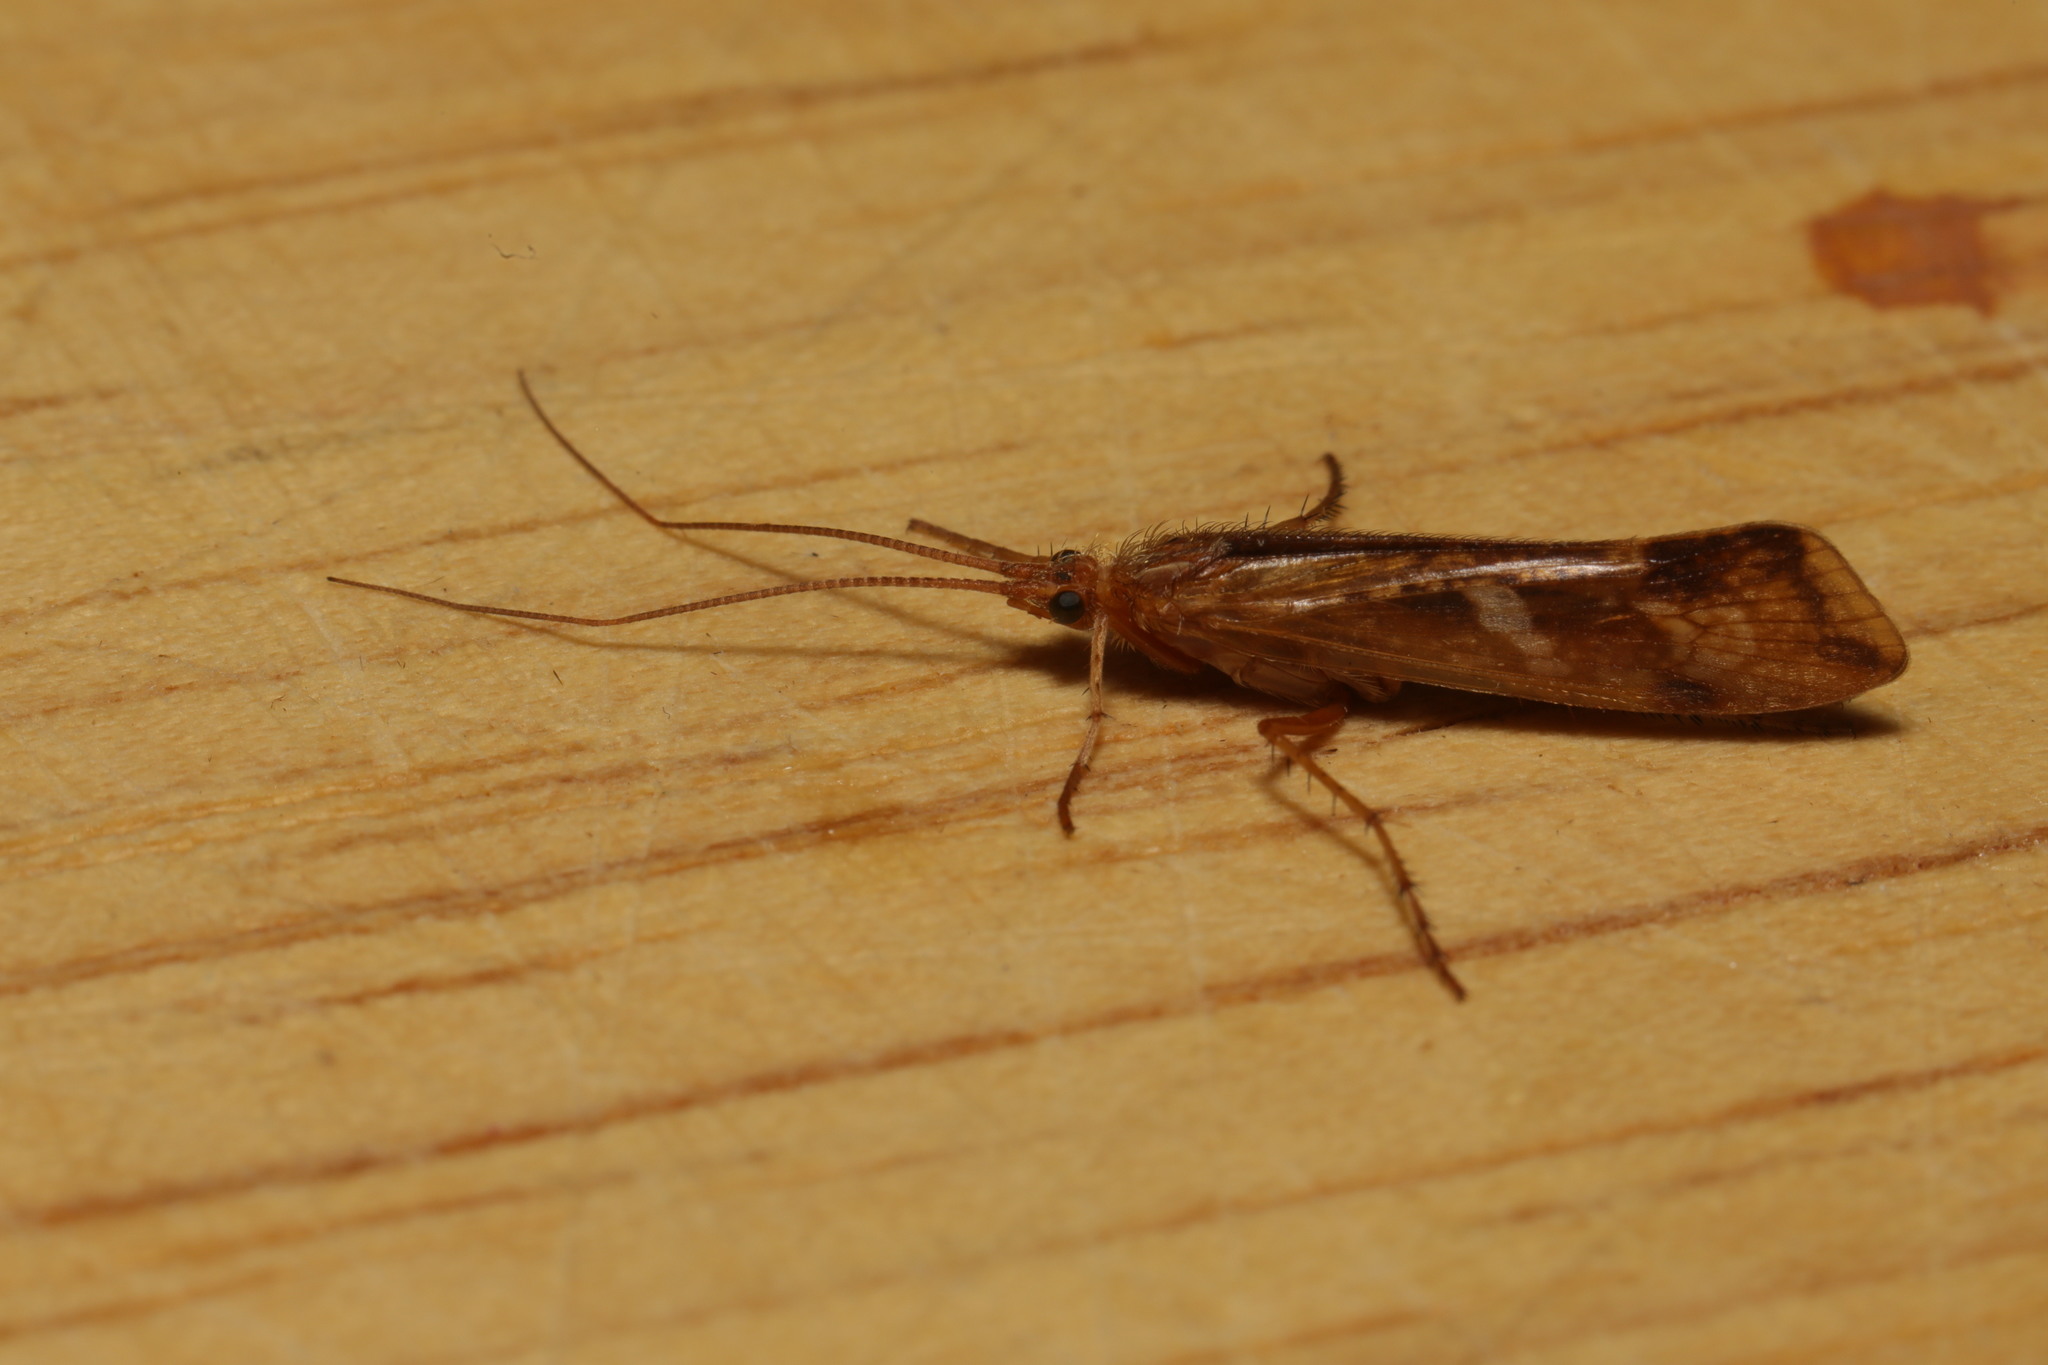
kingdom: Animalia
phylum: Arthropoda
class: Insecta
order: Trichoptera
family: Limnephilidae
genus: Limnephilus
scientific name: Limnephilus lunatus
